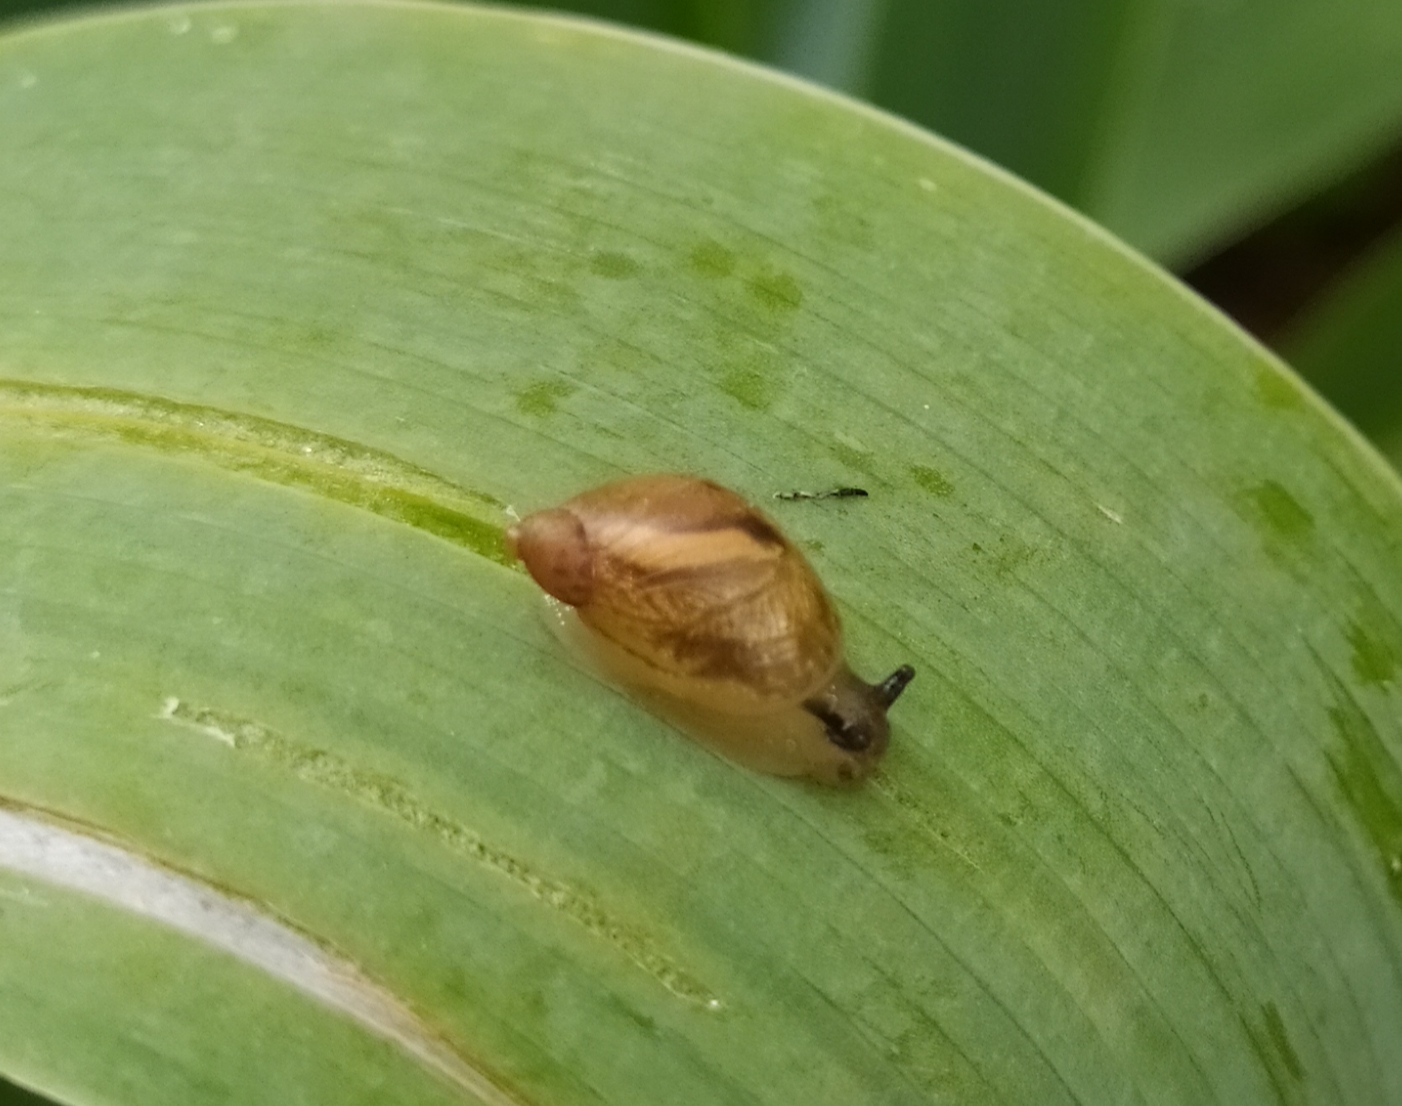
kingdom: Animalia
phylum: Mollusca
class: Gastropoda
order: Stylommatophora
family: Succineidae
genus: Succinea
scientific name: Succinea putris
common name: European ambersnail
